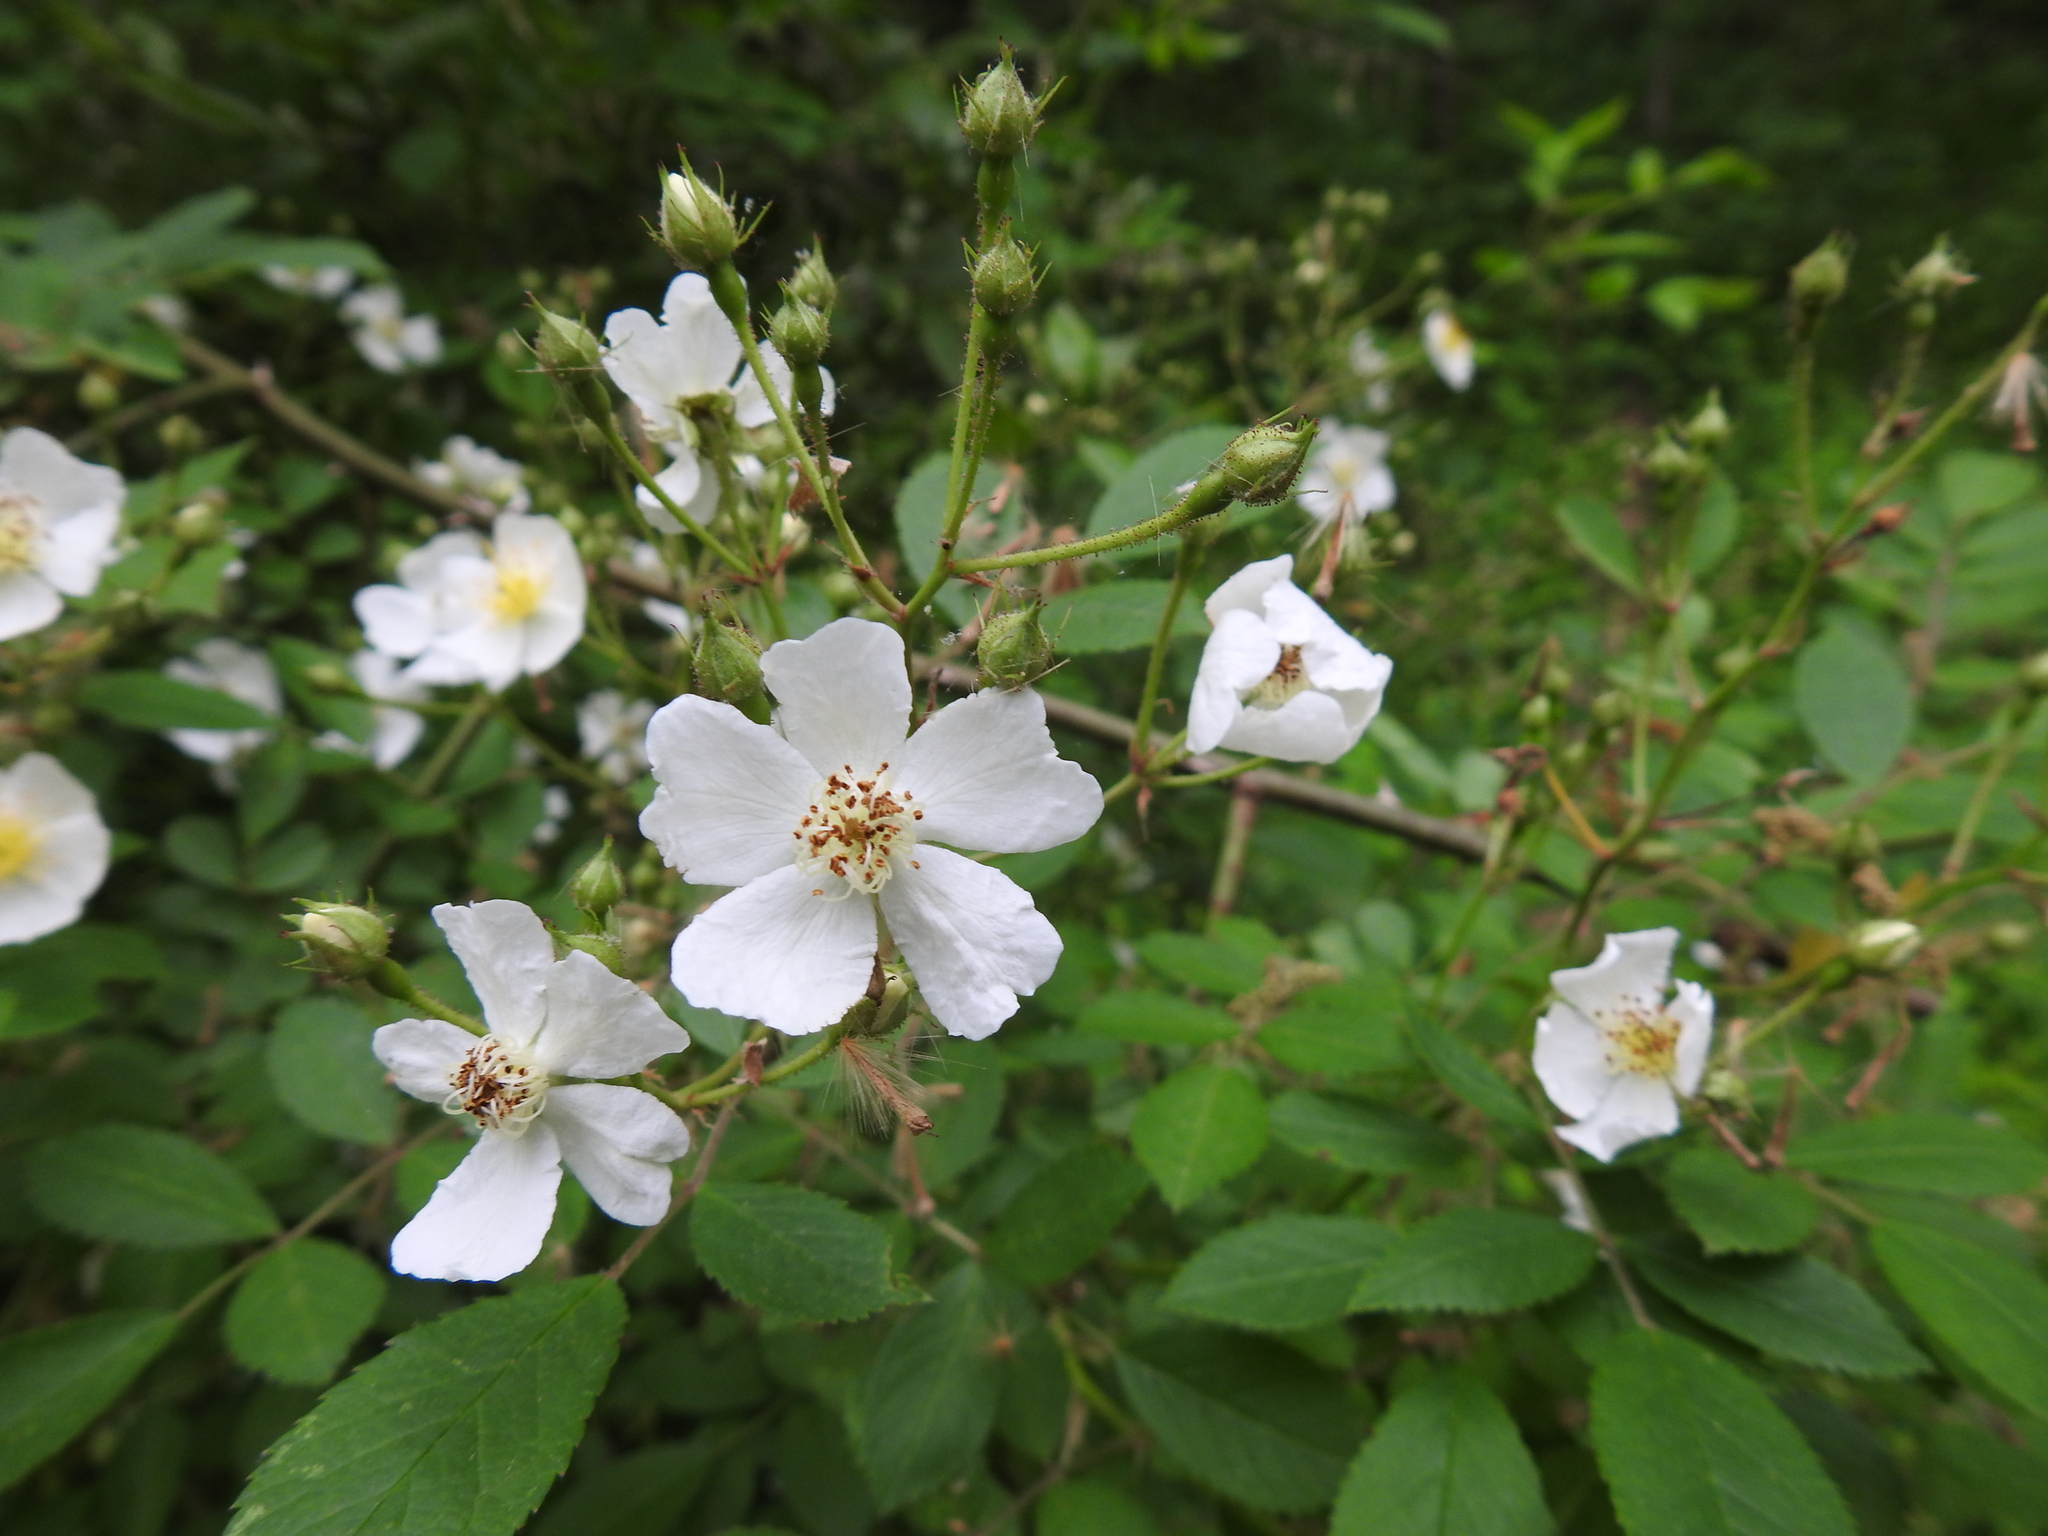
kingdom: Plantae
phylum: Tracheophyta
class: Magnoliopsida
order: Rosales
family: Rosaceae
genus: Rosa
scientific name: Rosa multiflora
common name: Multiflora rose
